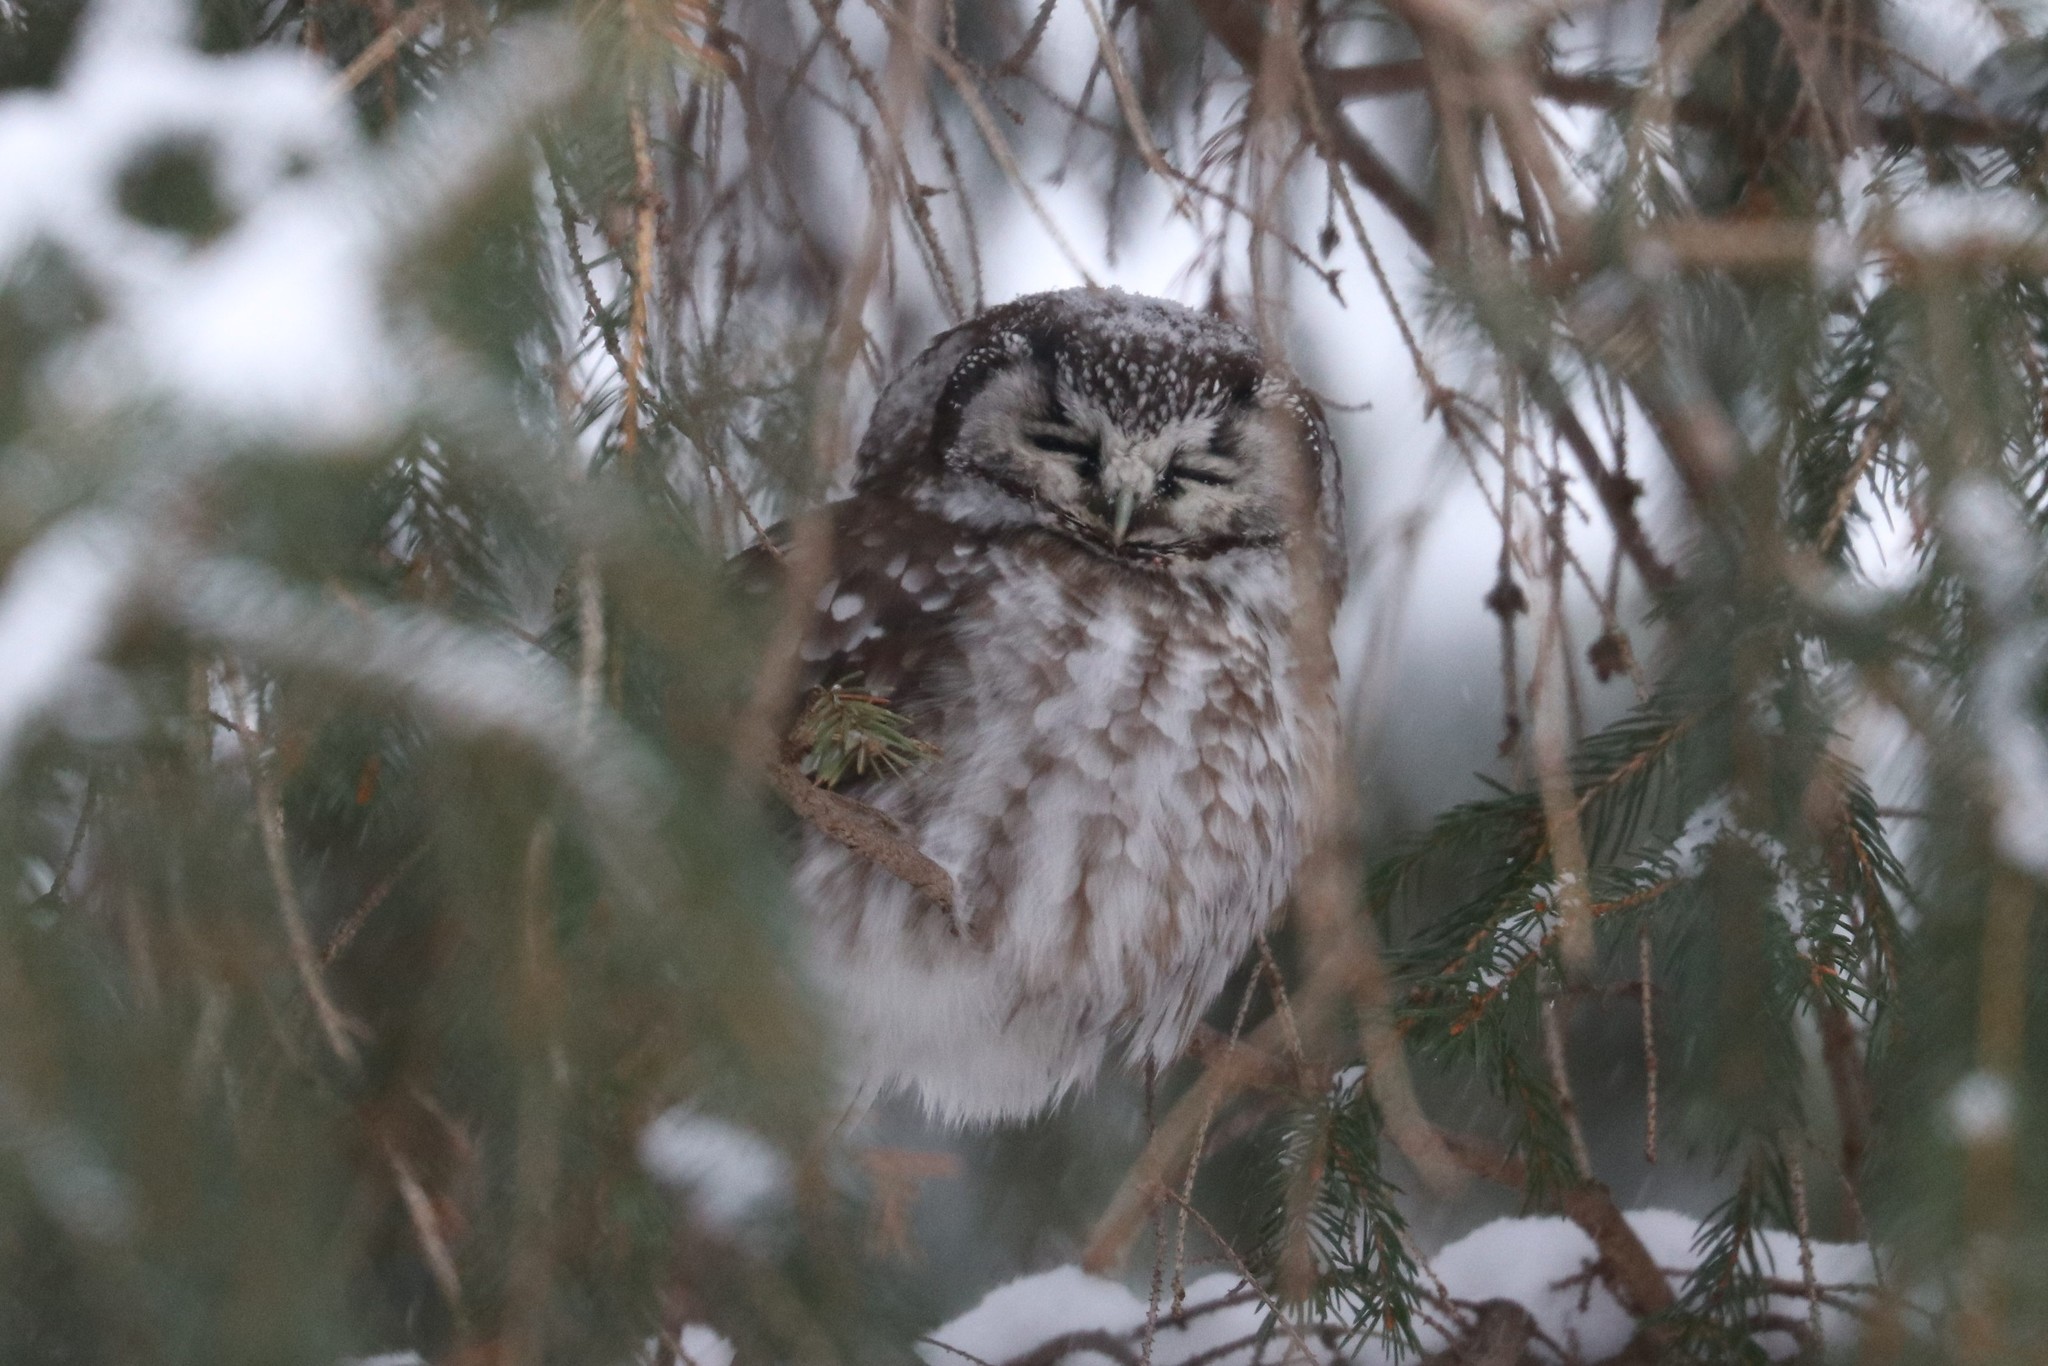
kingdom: Animalia
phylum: Chordata
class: Aves
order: Strigiformes
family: Strigidae
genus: Aegolius
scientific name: Aegolius funereus
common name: Boreal owl
